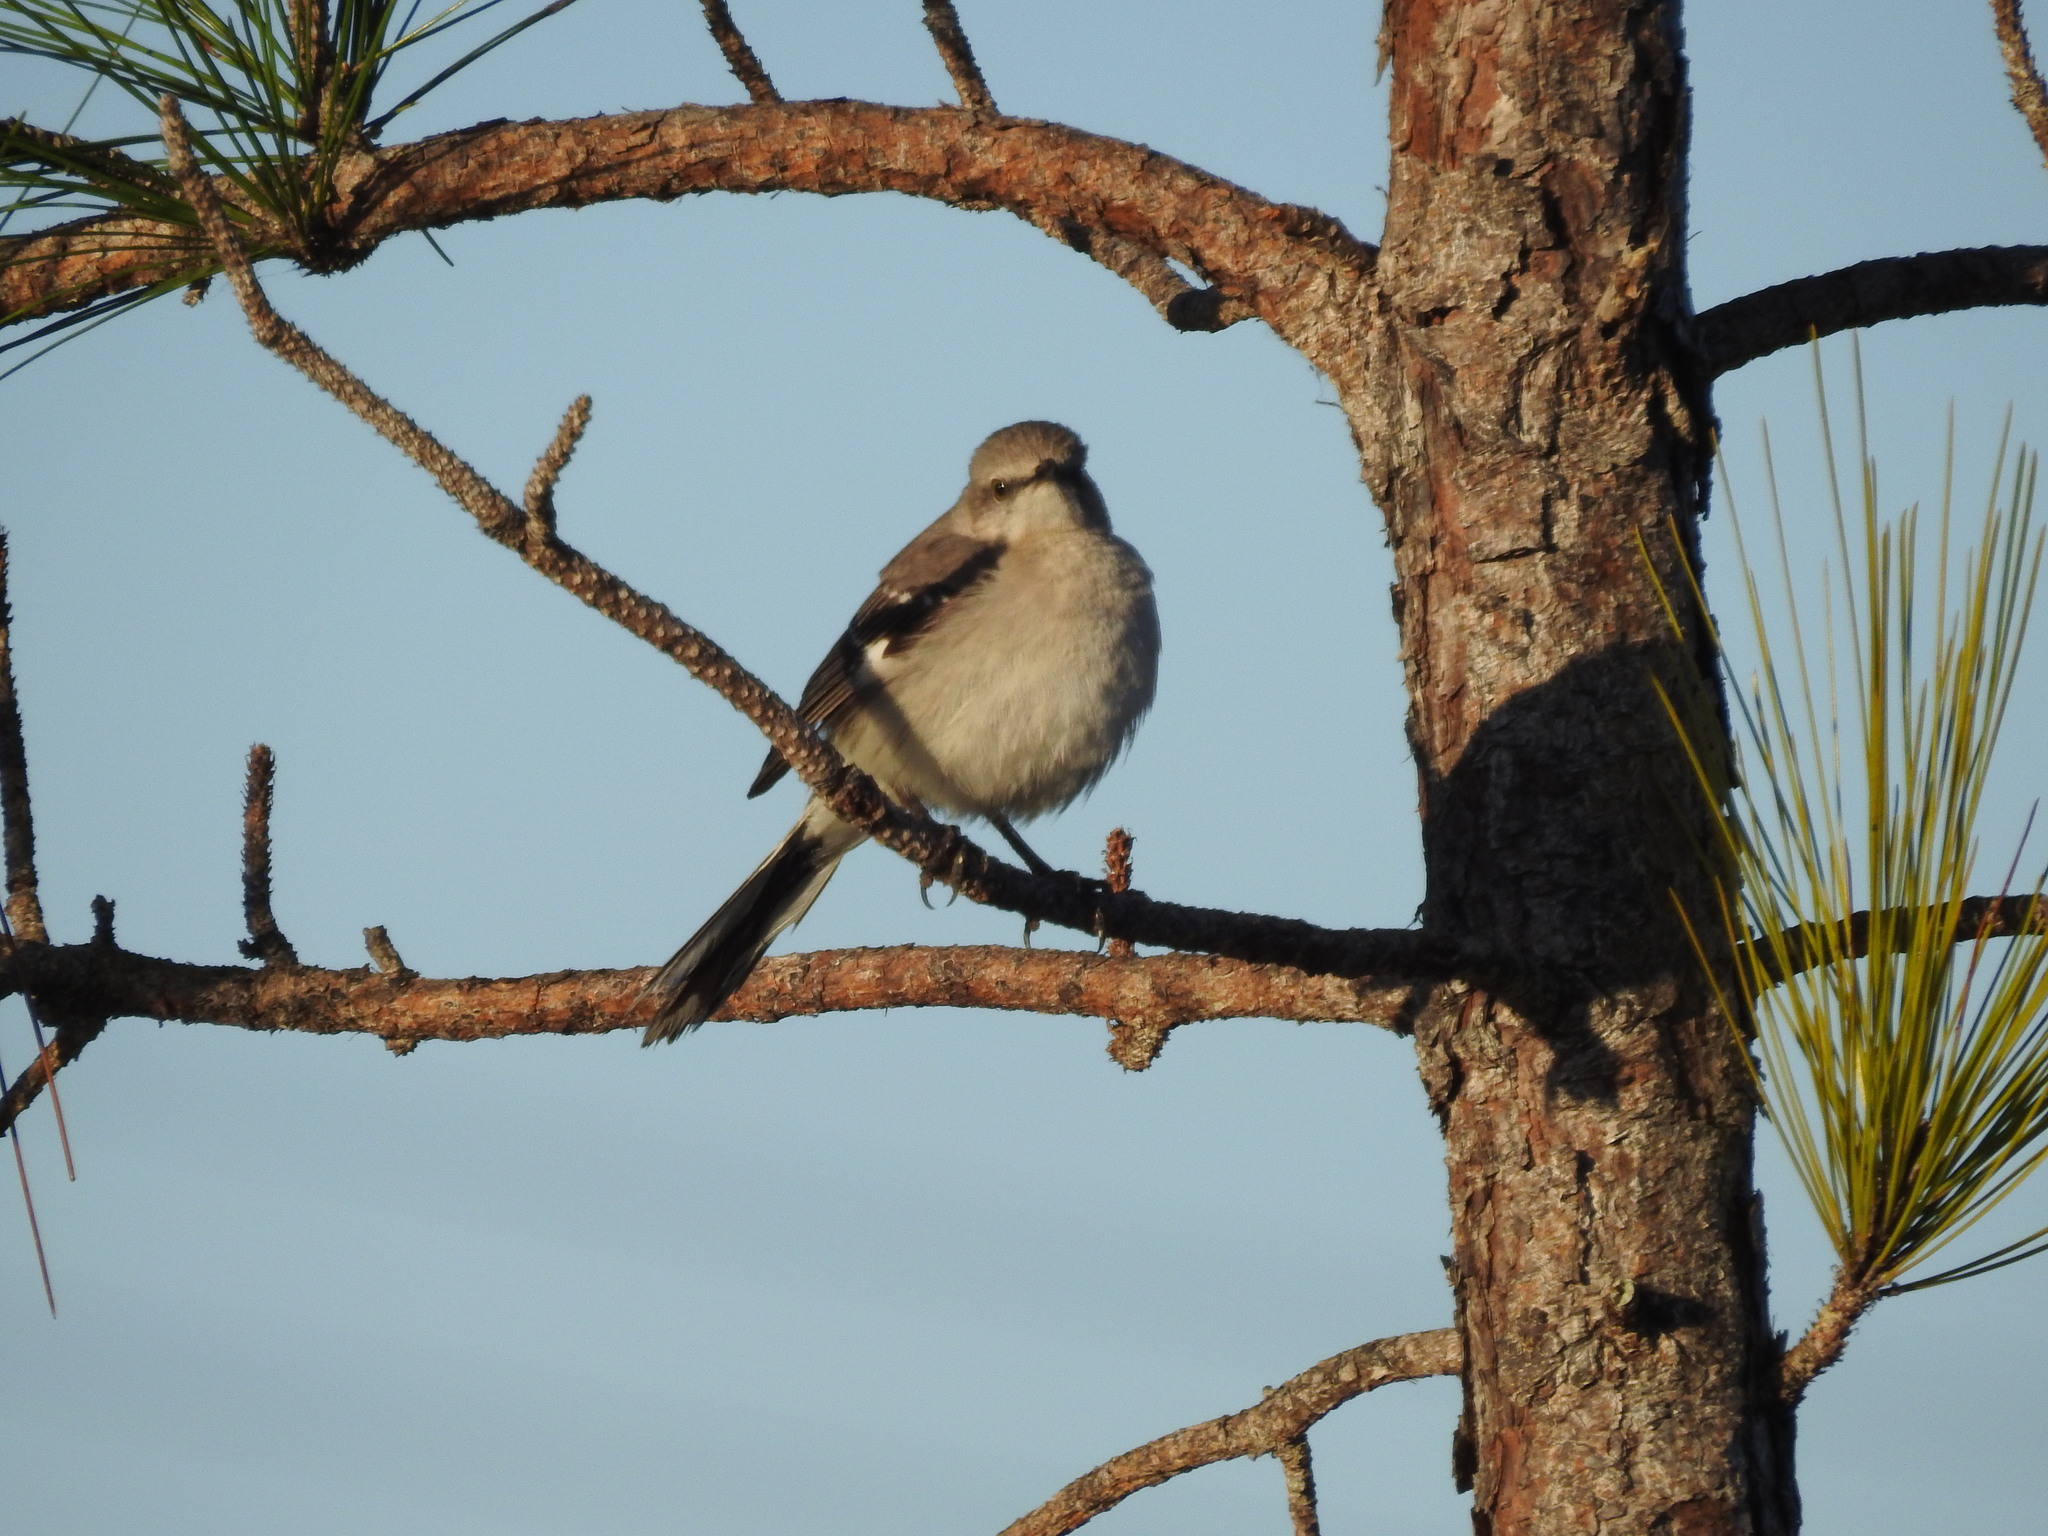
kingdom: Animalia
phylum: Chordata
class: Aves
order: Passeriformes
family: Mimidae
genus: Mimus
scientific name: Mimus polyglottos
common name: Northern mockingbird
